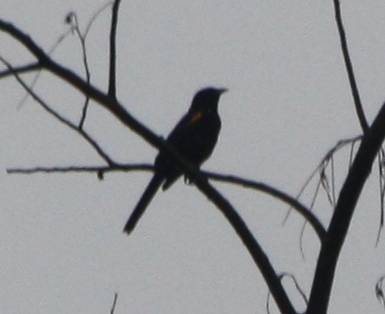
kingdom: Animalia
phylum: Chordata
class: Aves
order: Passeriformes
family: Icteridae
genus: Icterus
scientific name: Icterus cayanensis
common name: Epaulet oriole
